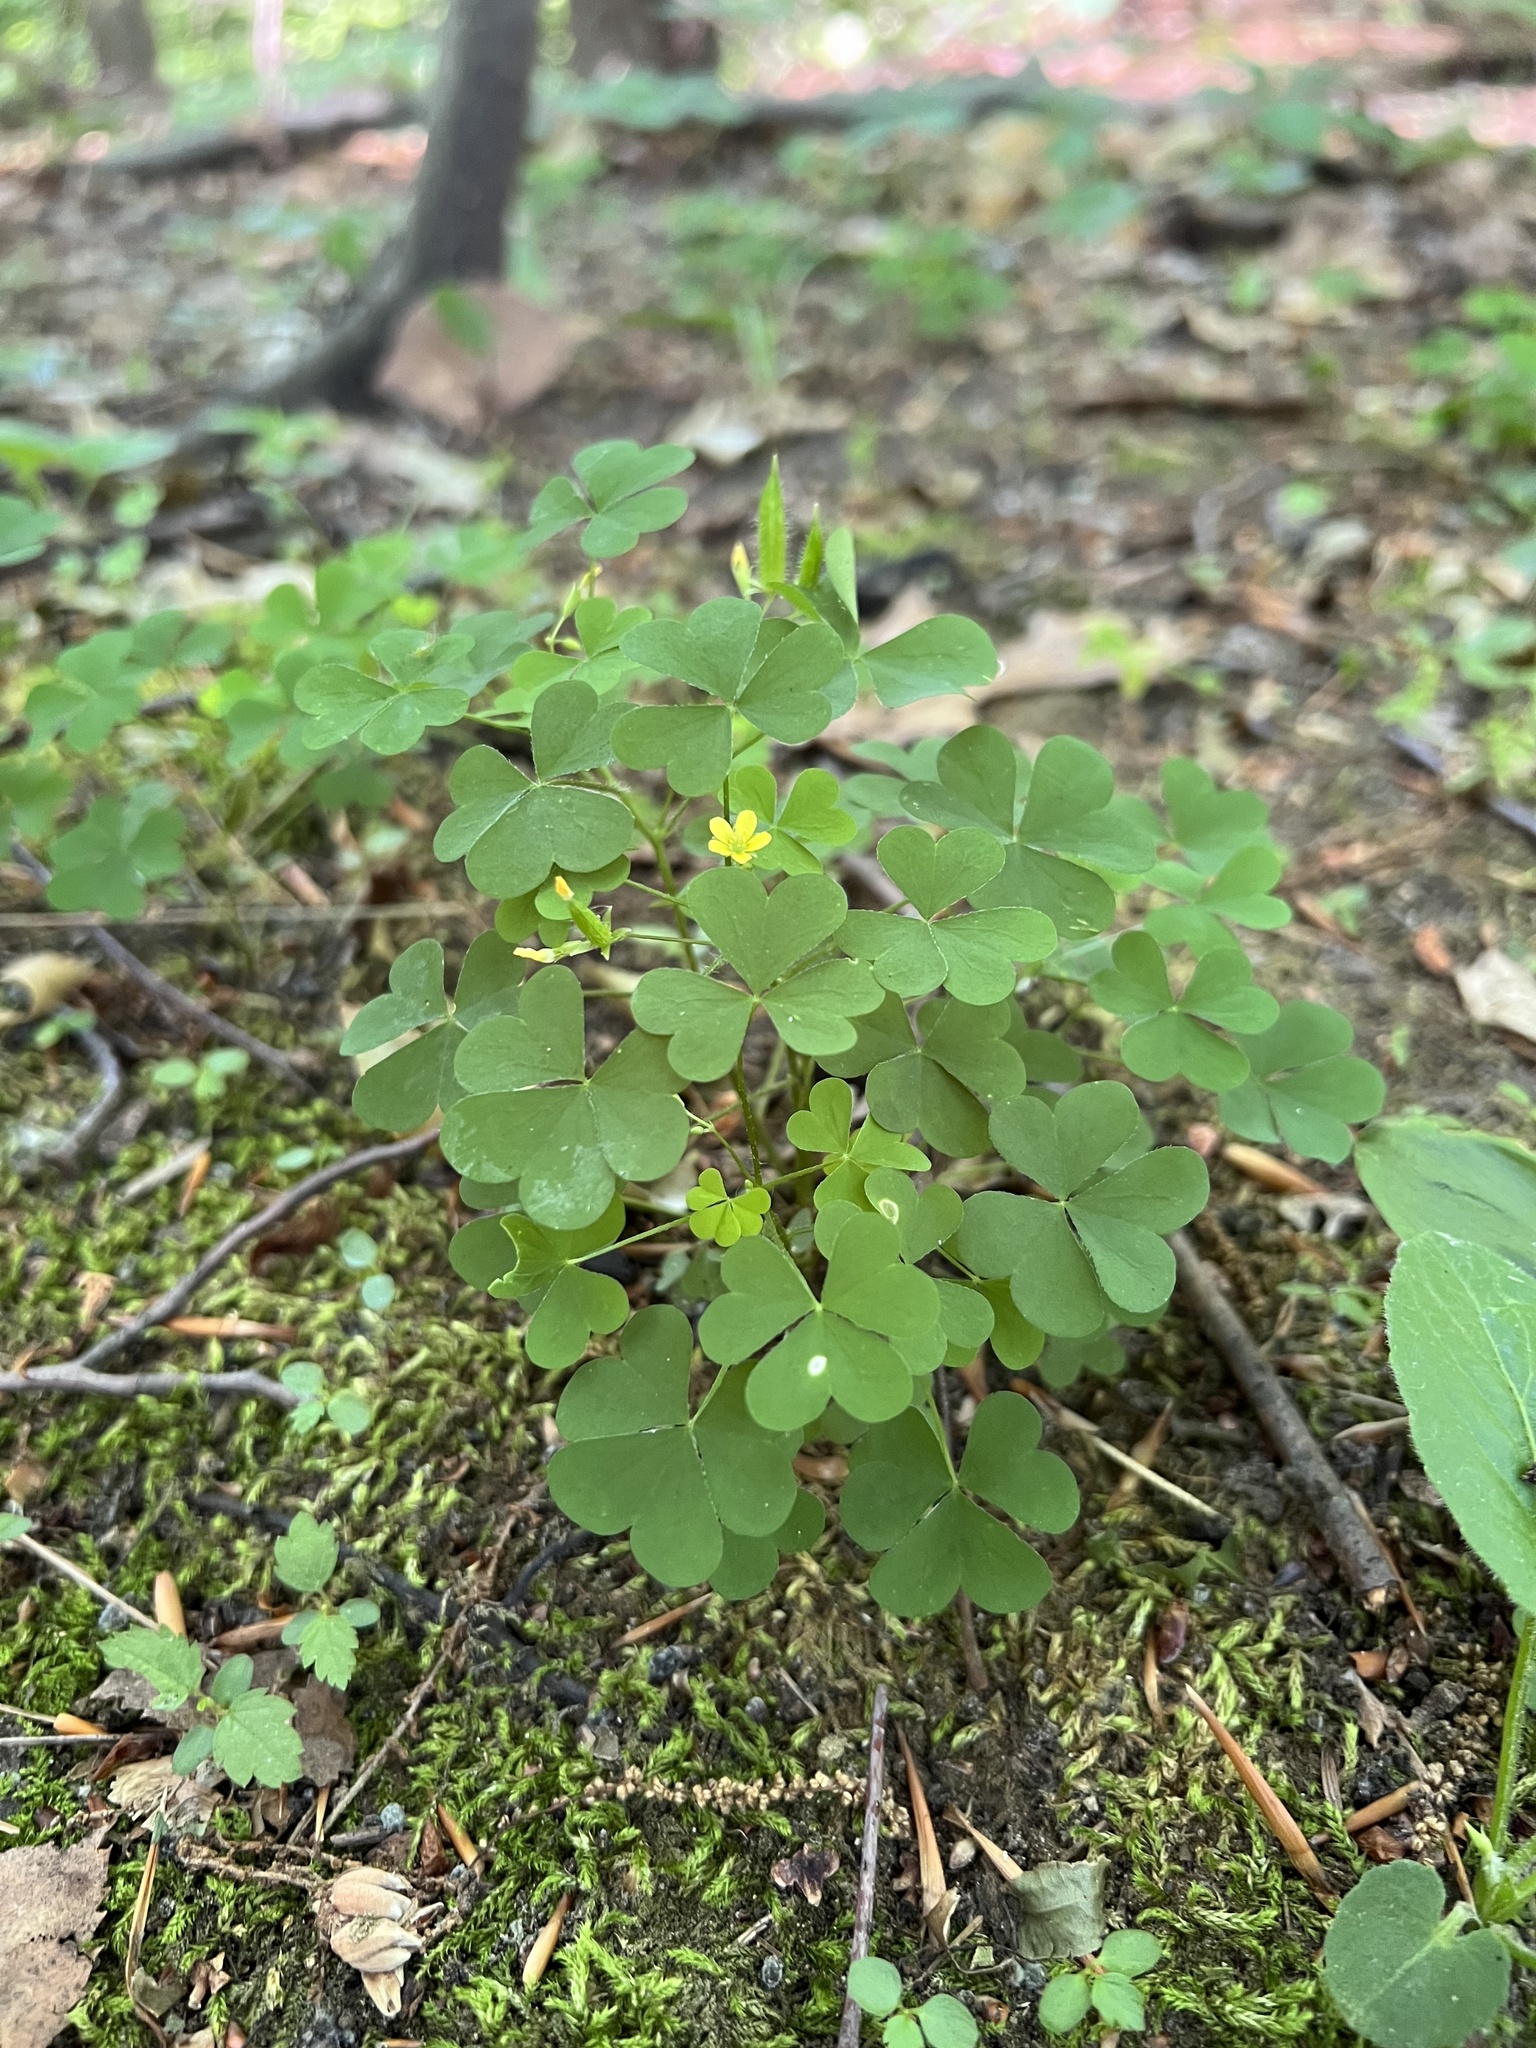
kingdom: Plantae
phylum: Tracheophyta
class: Magnoliopsida
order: Oxalidales
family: Oxalidaceae
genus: Oxalis
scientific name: Oxalis stricta
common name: Upright yellow-sorrel
